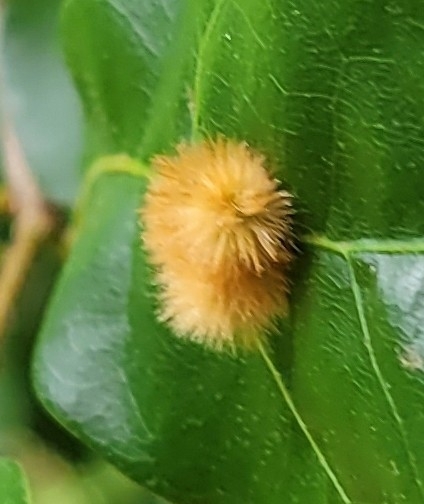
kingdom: Animalia
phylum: Arthropoda
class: Insecta
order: Hymenoptera
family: Cynipidae
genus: Callirhytis
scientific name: Callirhytis
